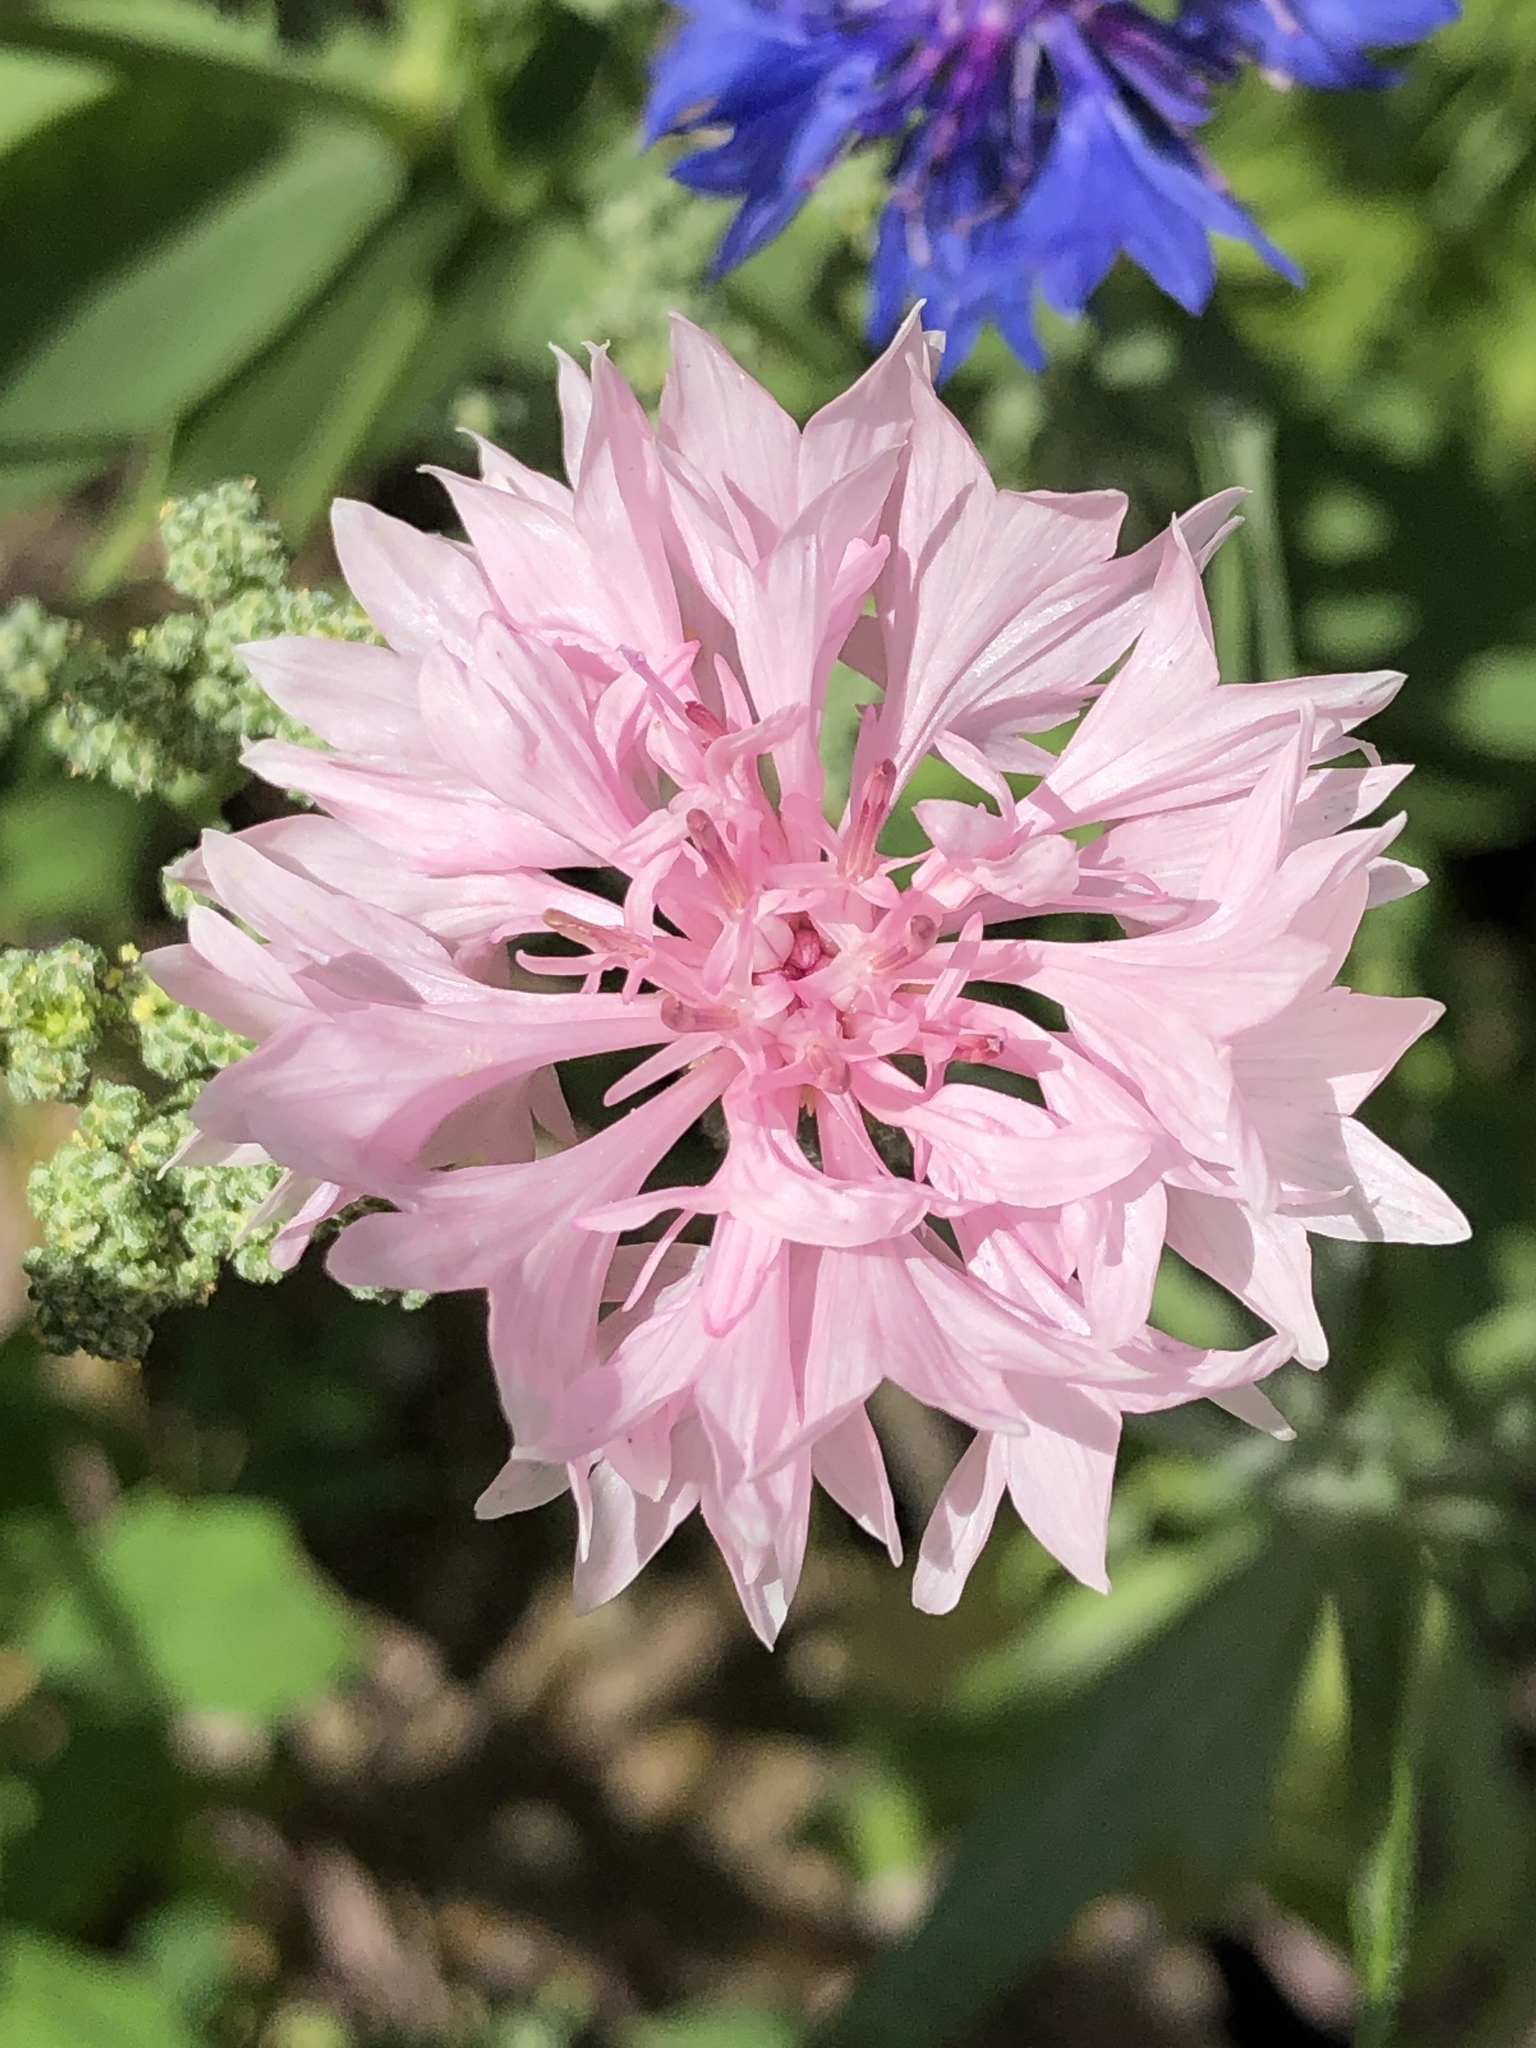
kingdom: Plantae
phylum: Tracheophyta
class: Magnoliopsida
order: Asterales
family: Asteraceae
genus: Centaurea
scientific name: Centaurea cyanus
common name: Cornflower
